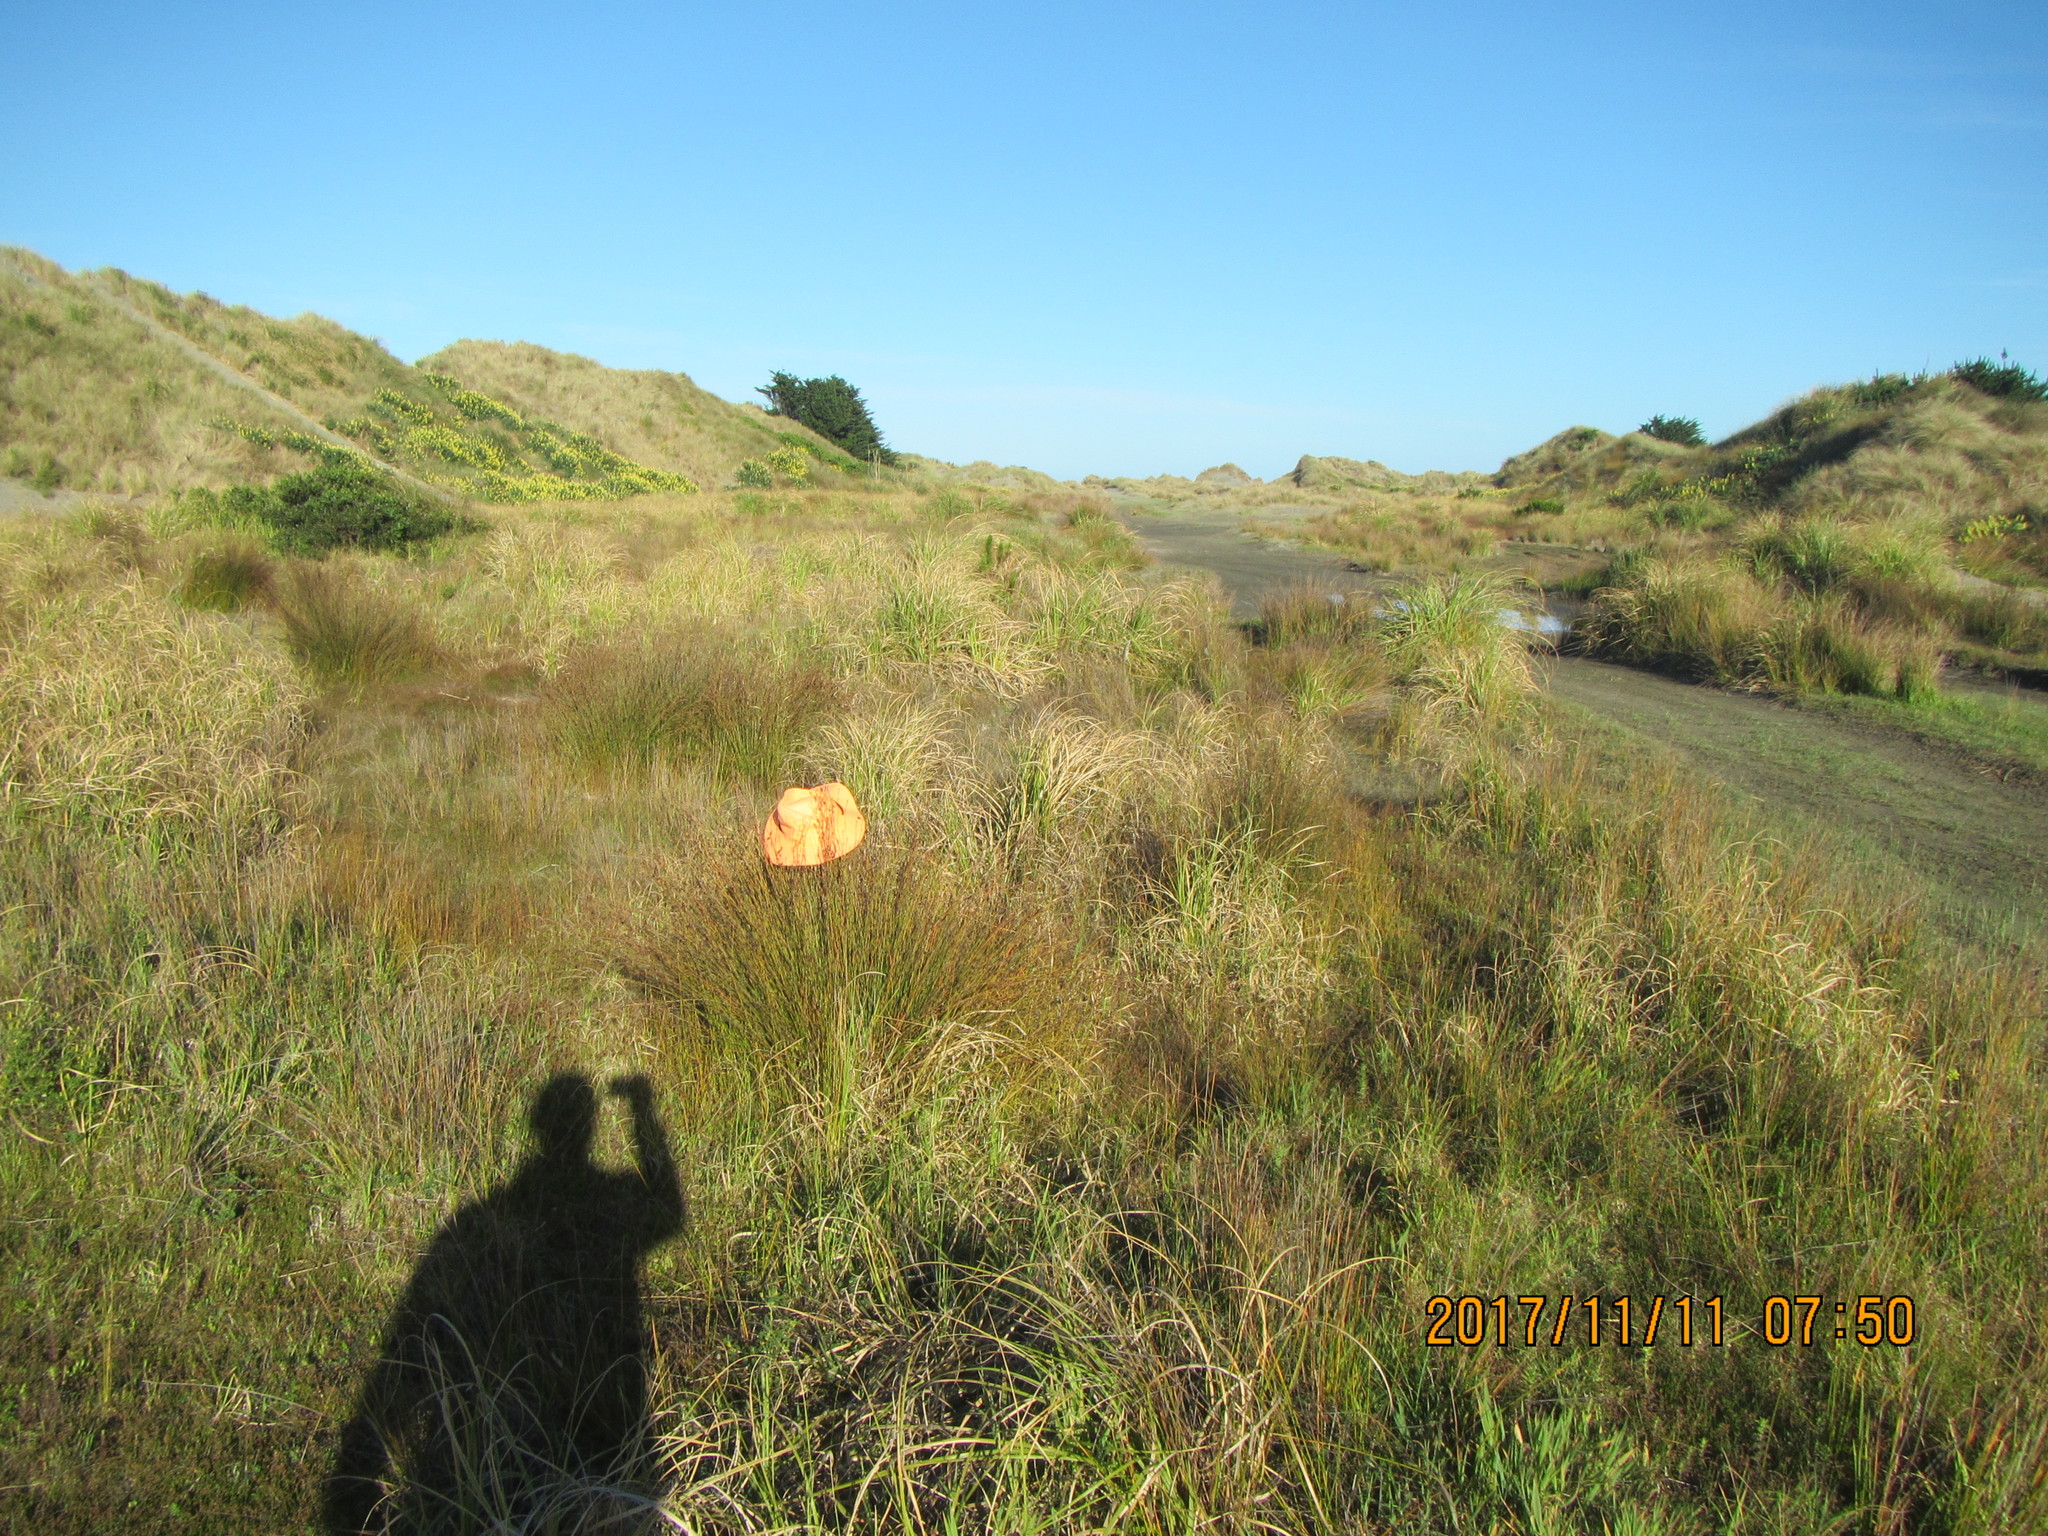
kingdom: Plantae
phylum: Tracheophyta
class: Liliopsida
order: Poales
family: Restionaceae
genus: Apodasmia
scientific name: Apodasmia similis
